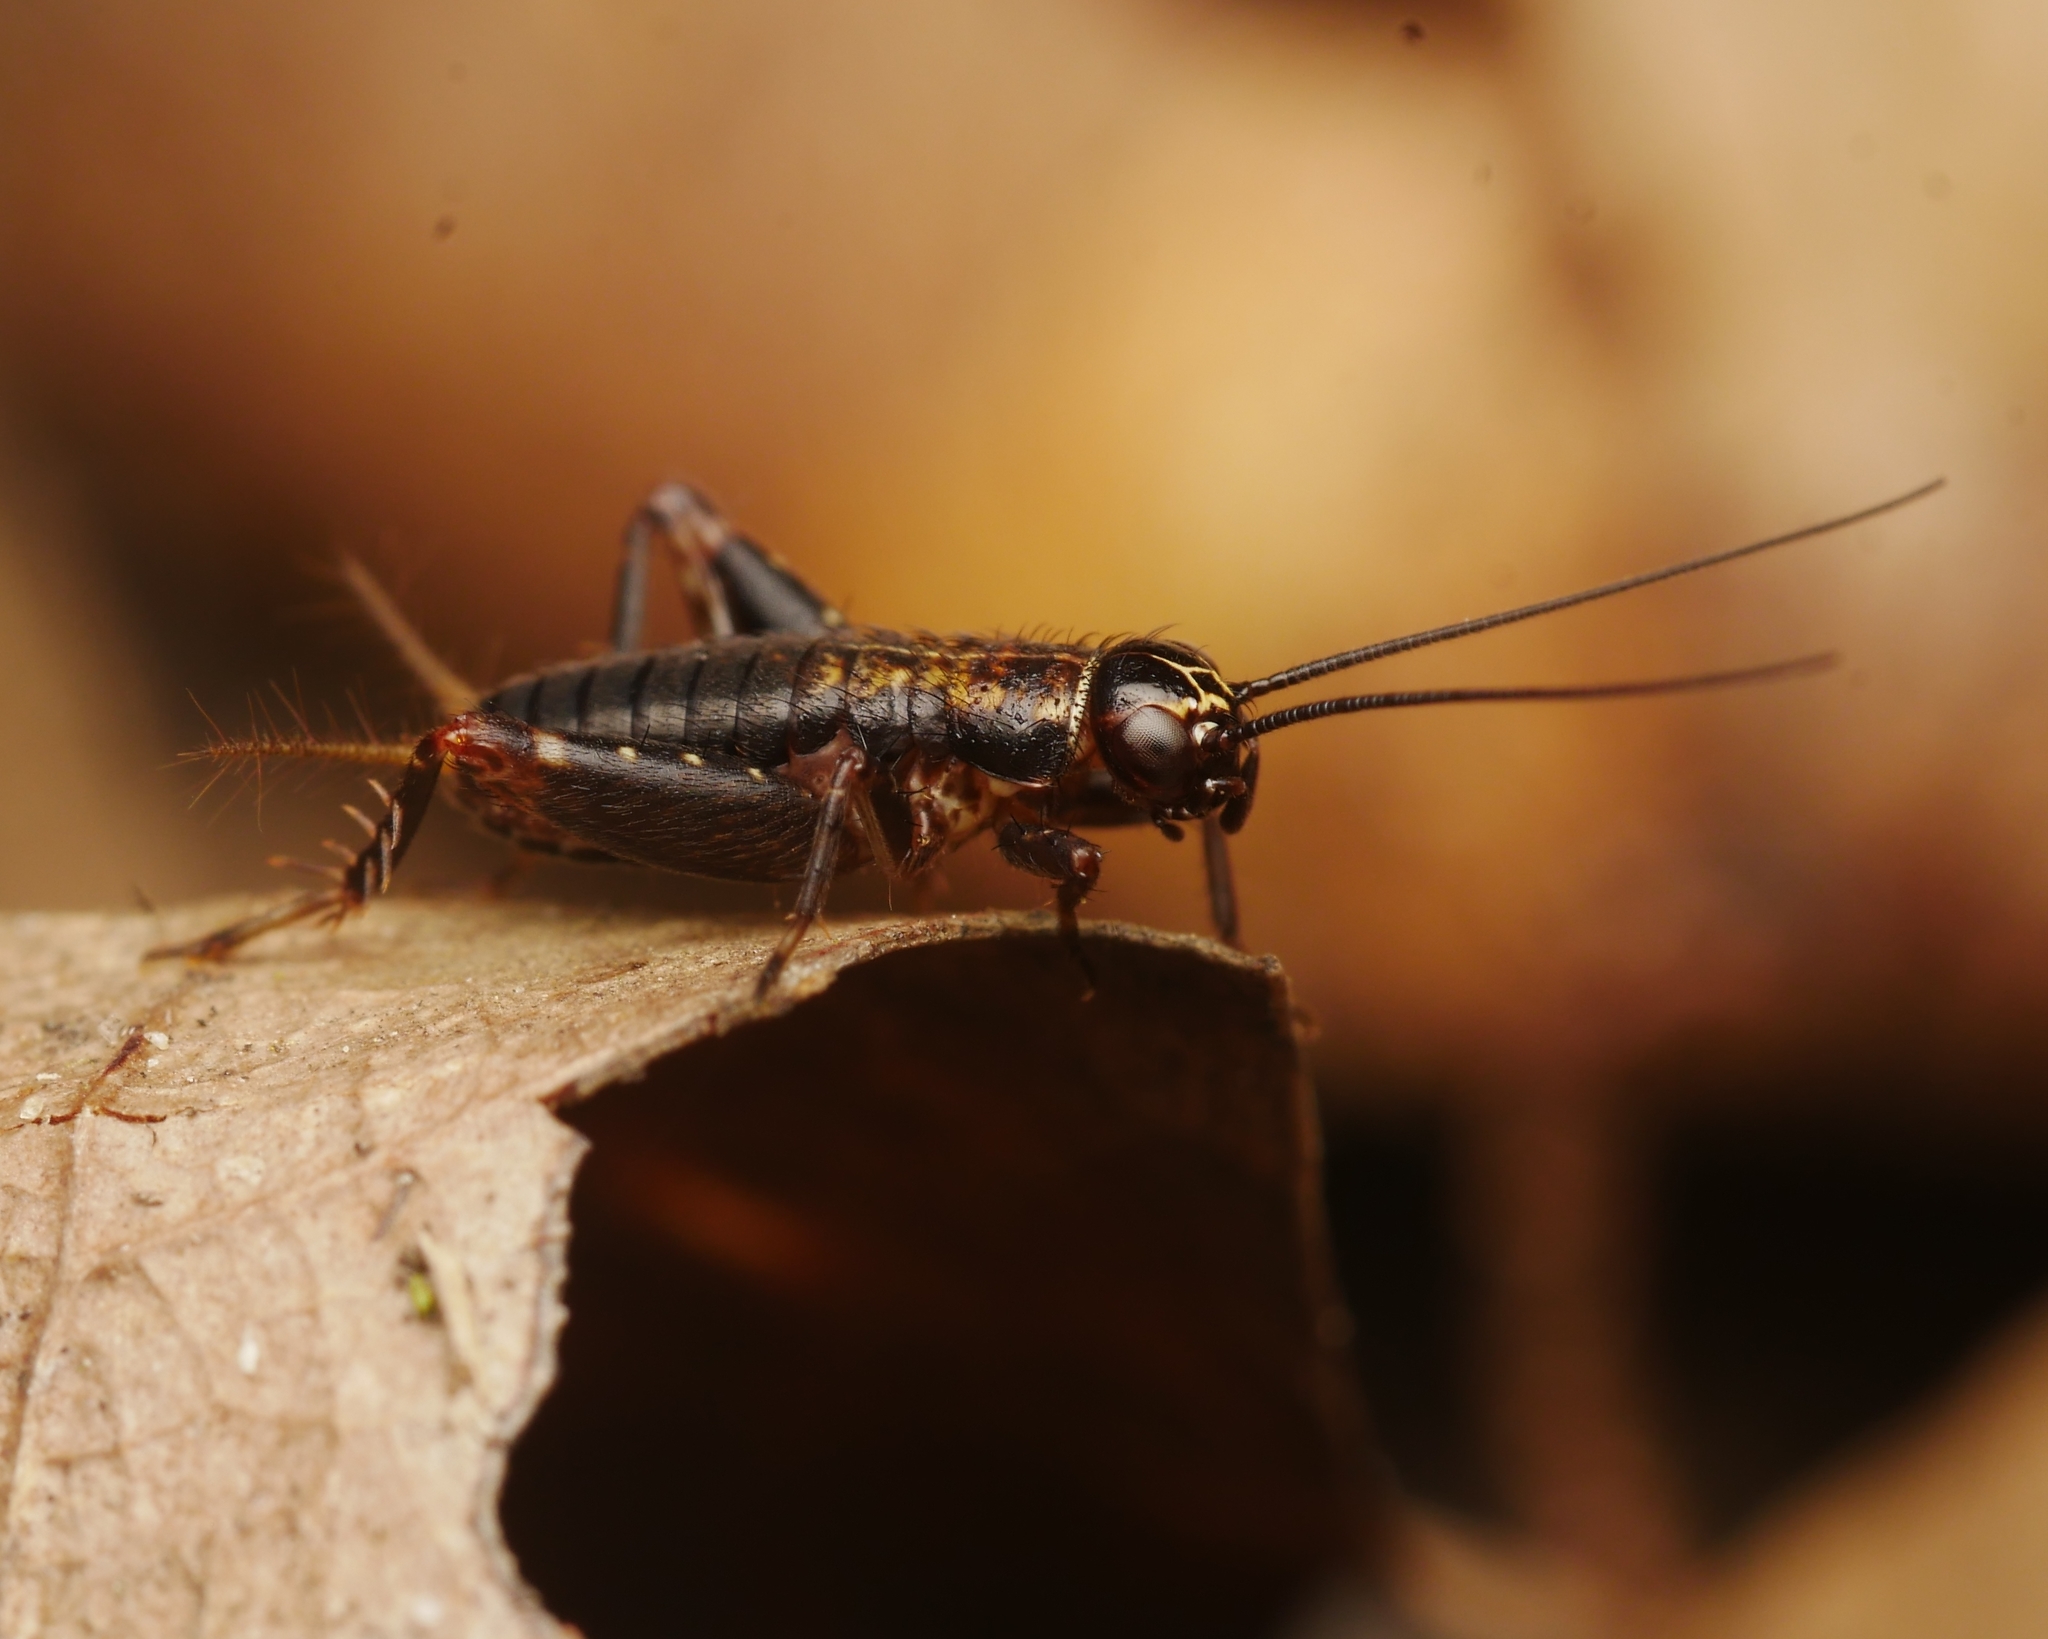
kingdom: Animalia
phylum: Arthropoda
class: Insecta
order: Orthoptera
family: Trigonidiidae
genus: Nemobius
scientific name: Nemobius sylvestris
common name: Wood-cricket
